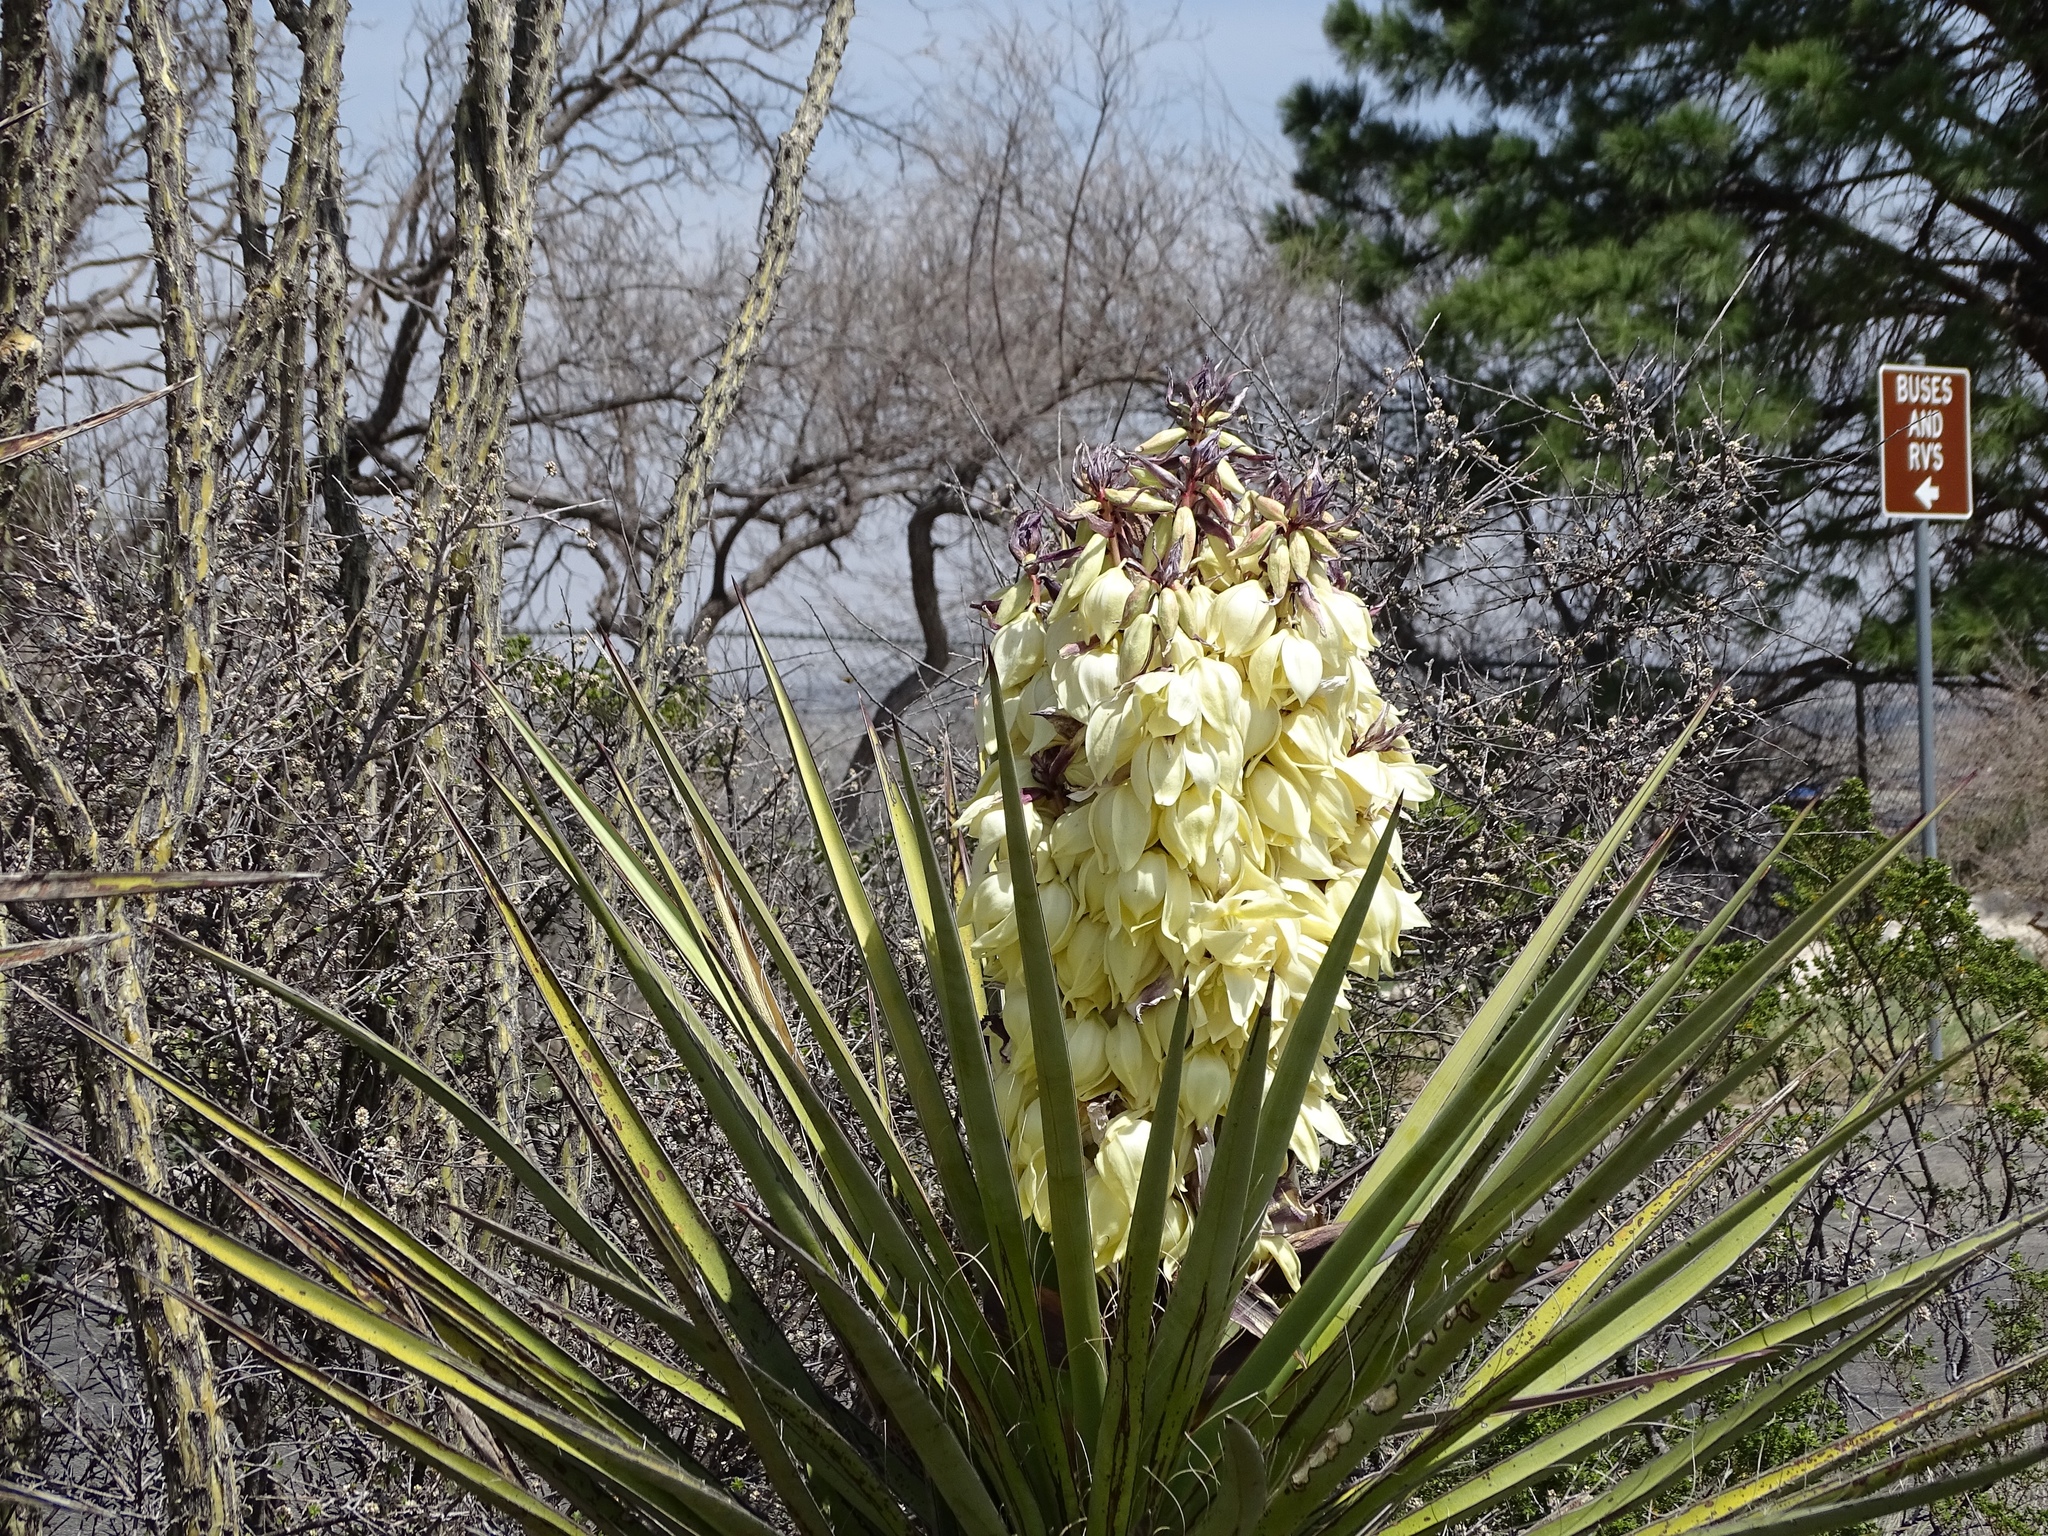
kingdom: Plantae
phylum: Tracheophyta
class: Liliopsida
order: Asparagales
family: Asparagaceae
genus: Yucca
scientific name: Yucca treculiana
